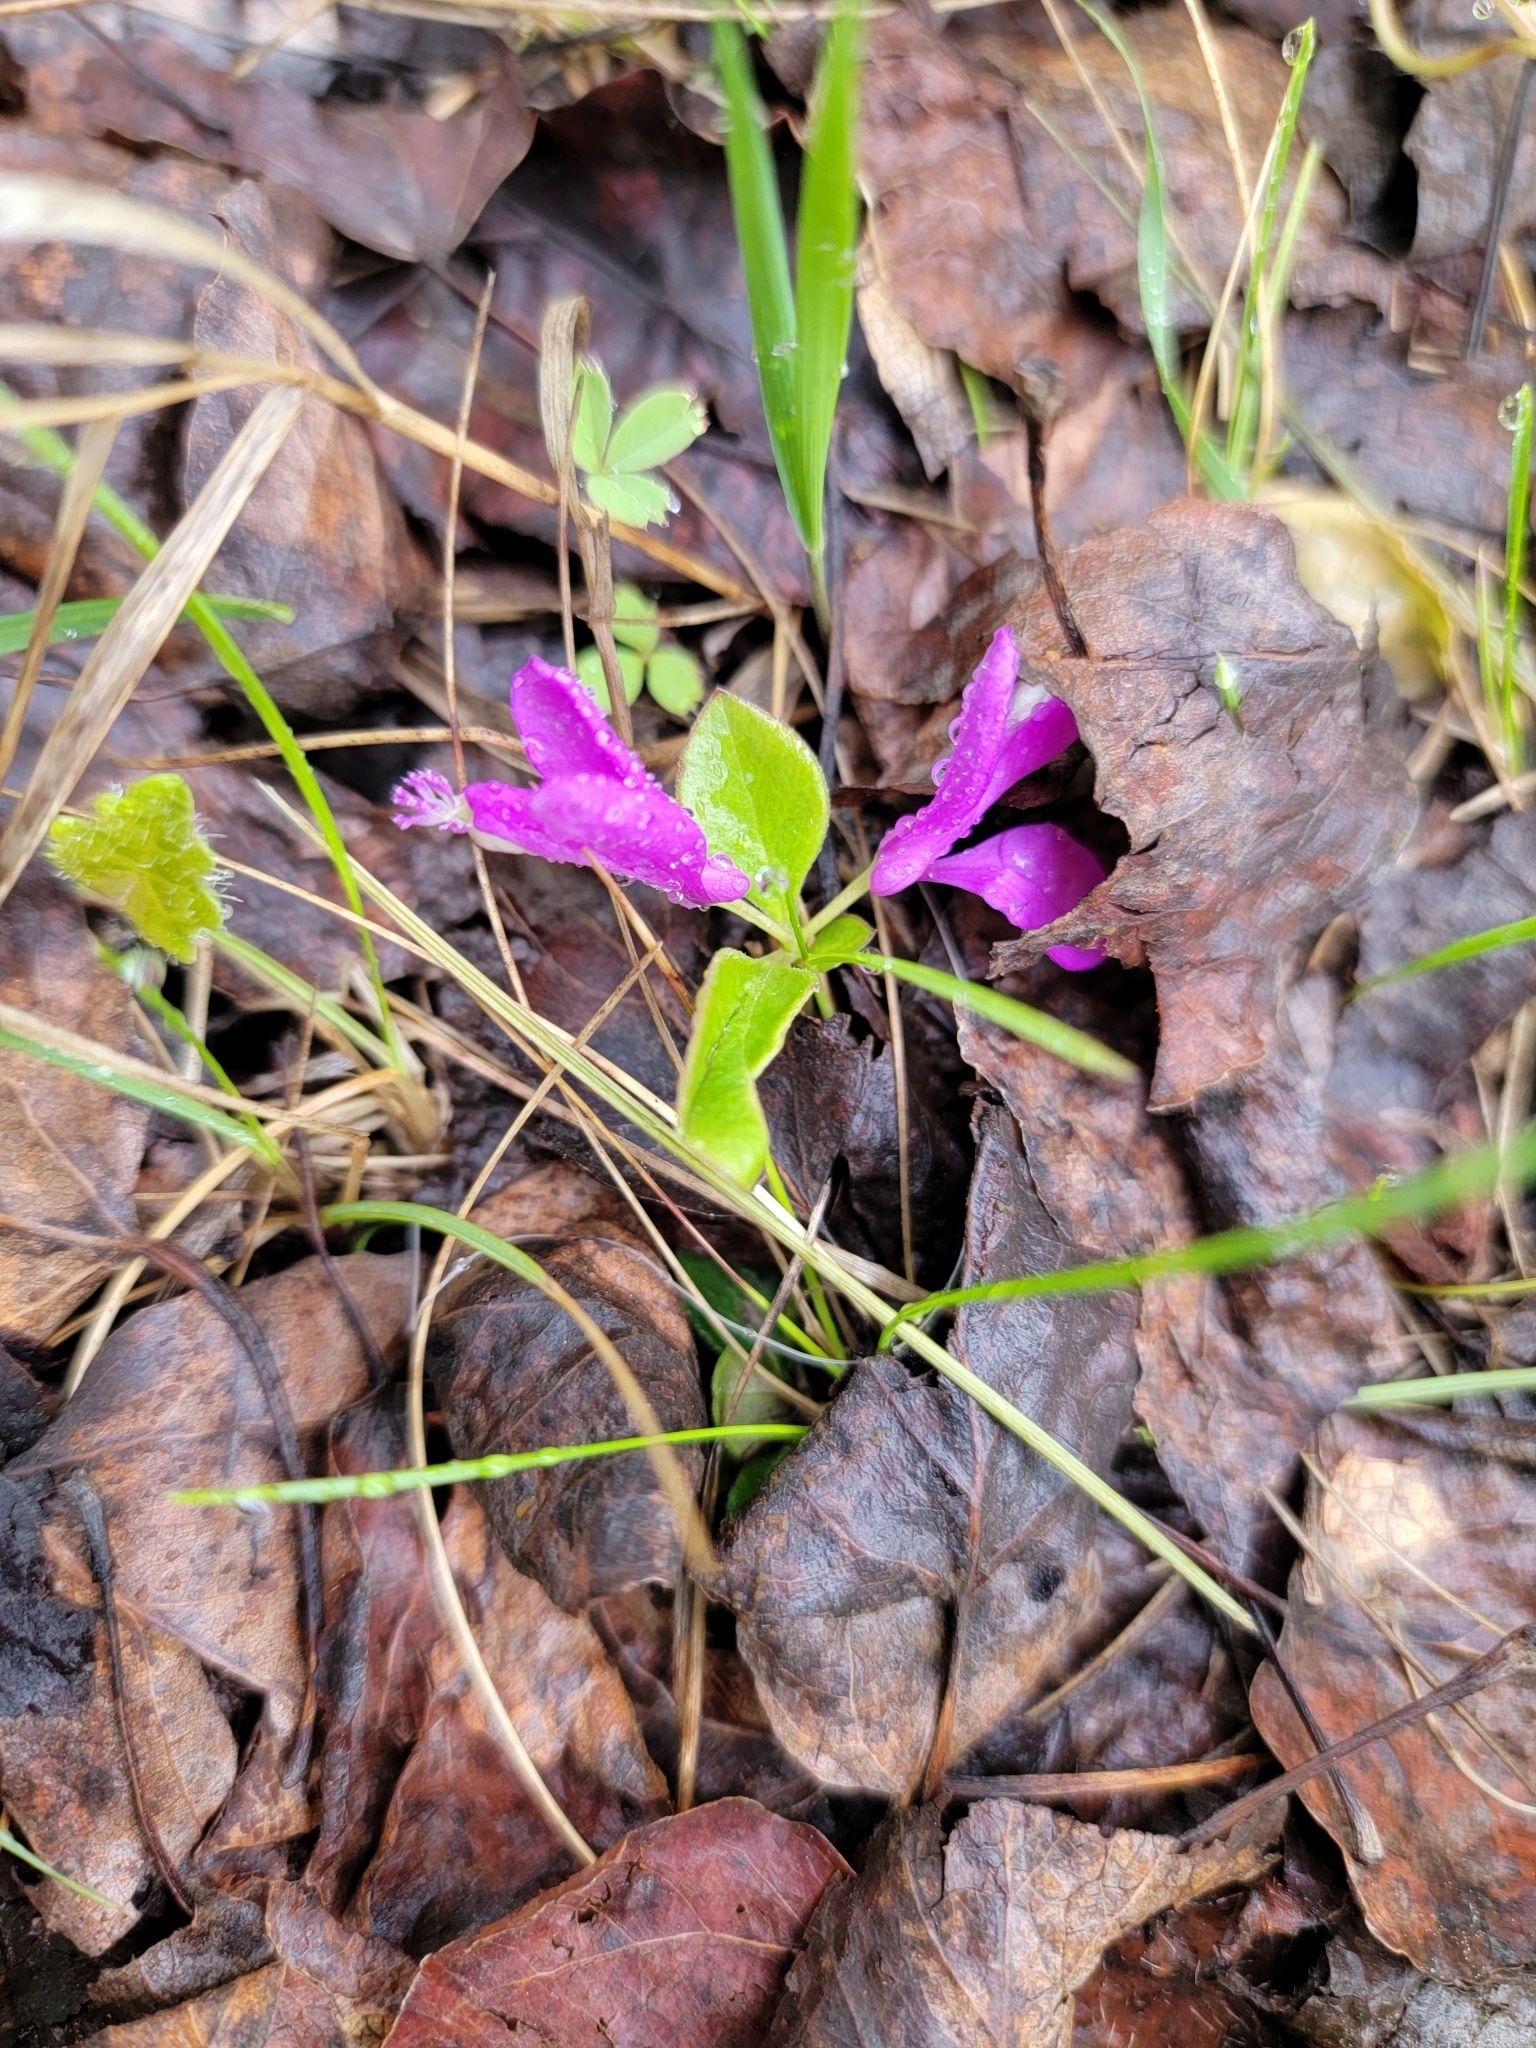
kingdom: Plantae
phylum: Tracheophyta
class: Magnoliopsida
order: Fabales
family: Polygalaceae
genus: Polygaloides
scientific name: Polygaloides paucifolia
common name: Bird-on-the-wing
